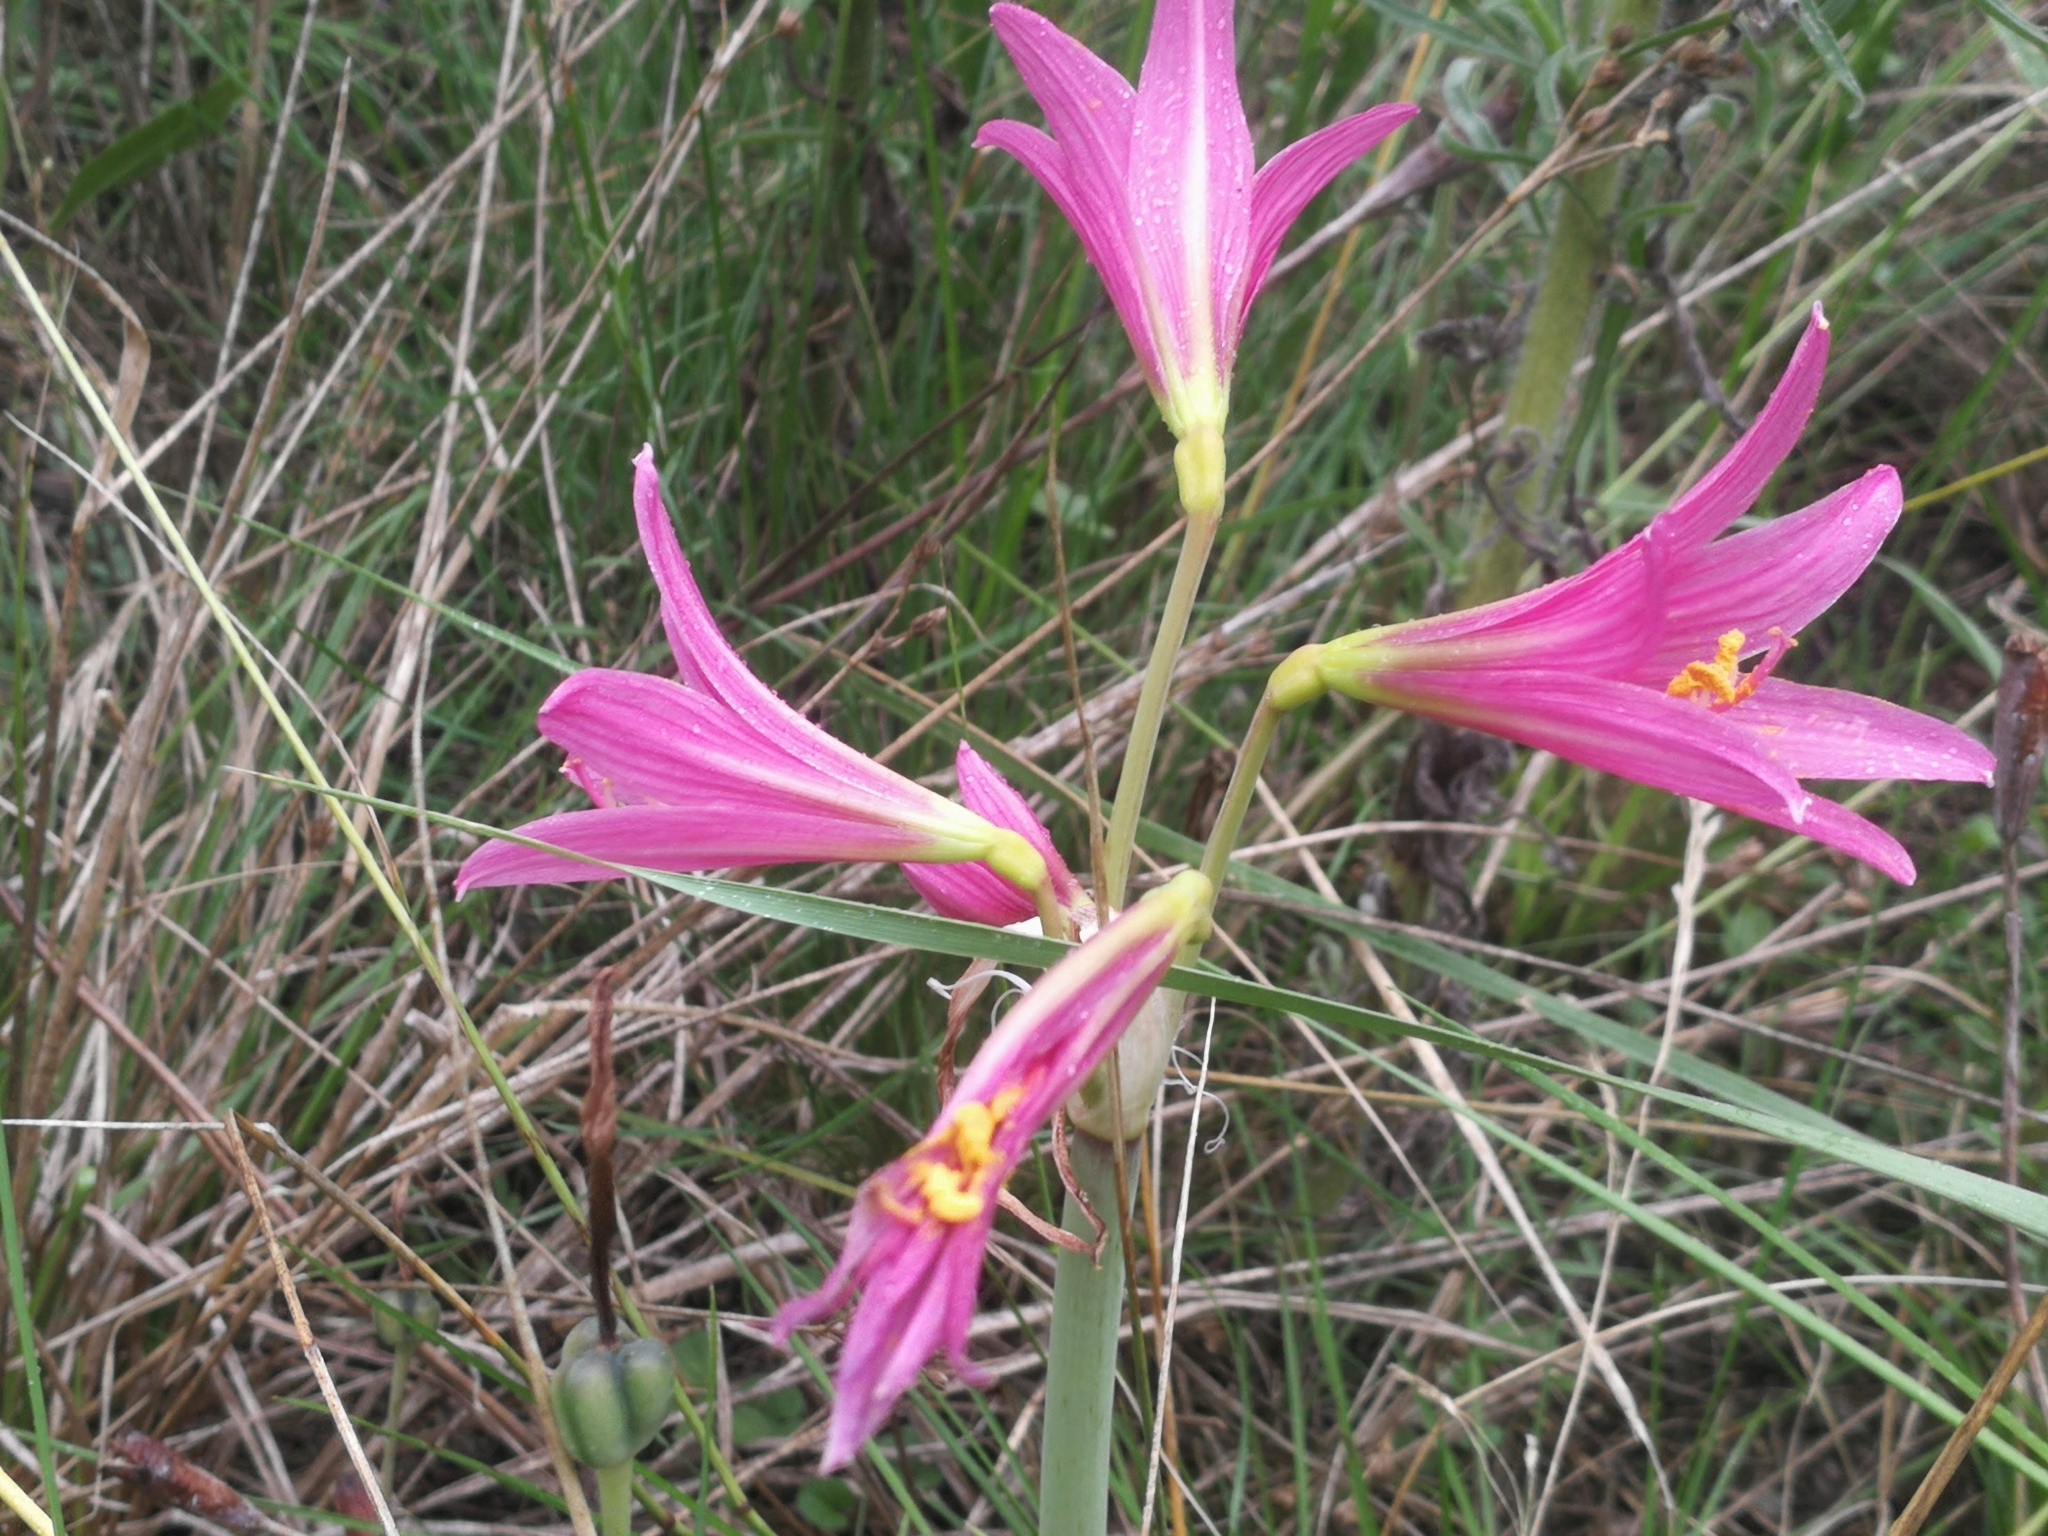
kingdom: Plantae
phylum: Tracheophyta
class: Liliopsida
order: Asparagales
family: Amaryllidaceae
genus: Zephyranthes
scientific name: Zephyranthes bifida
